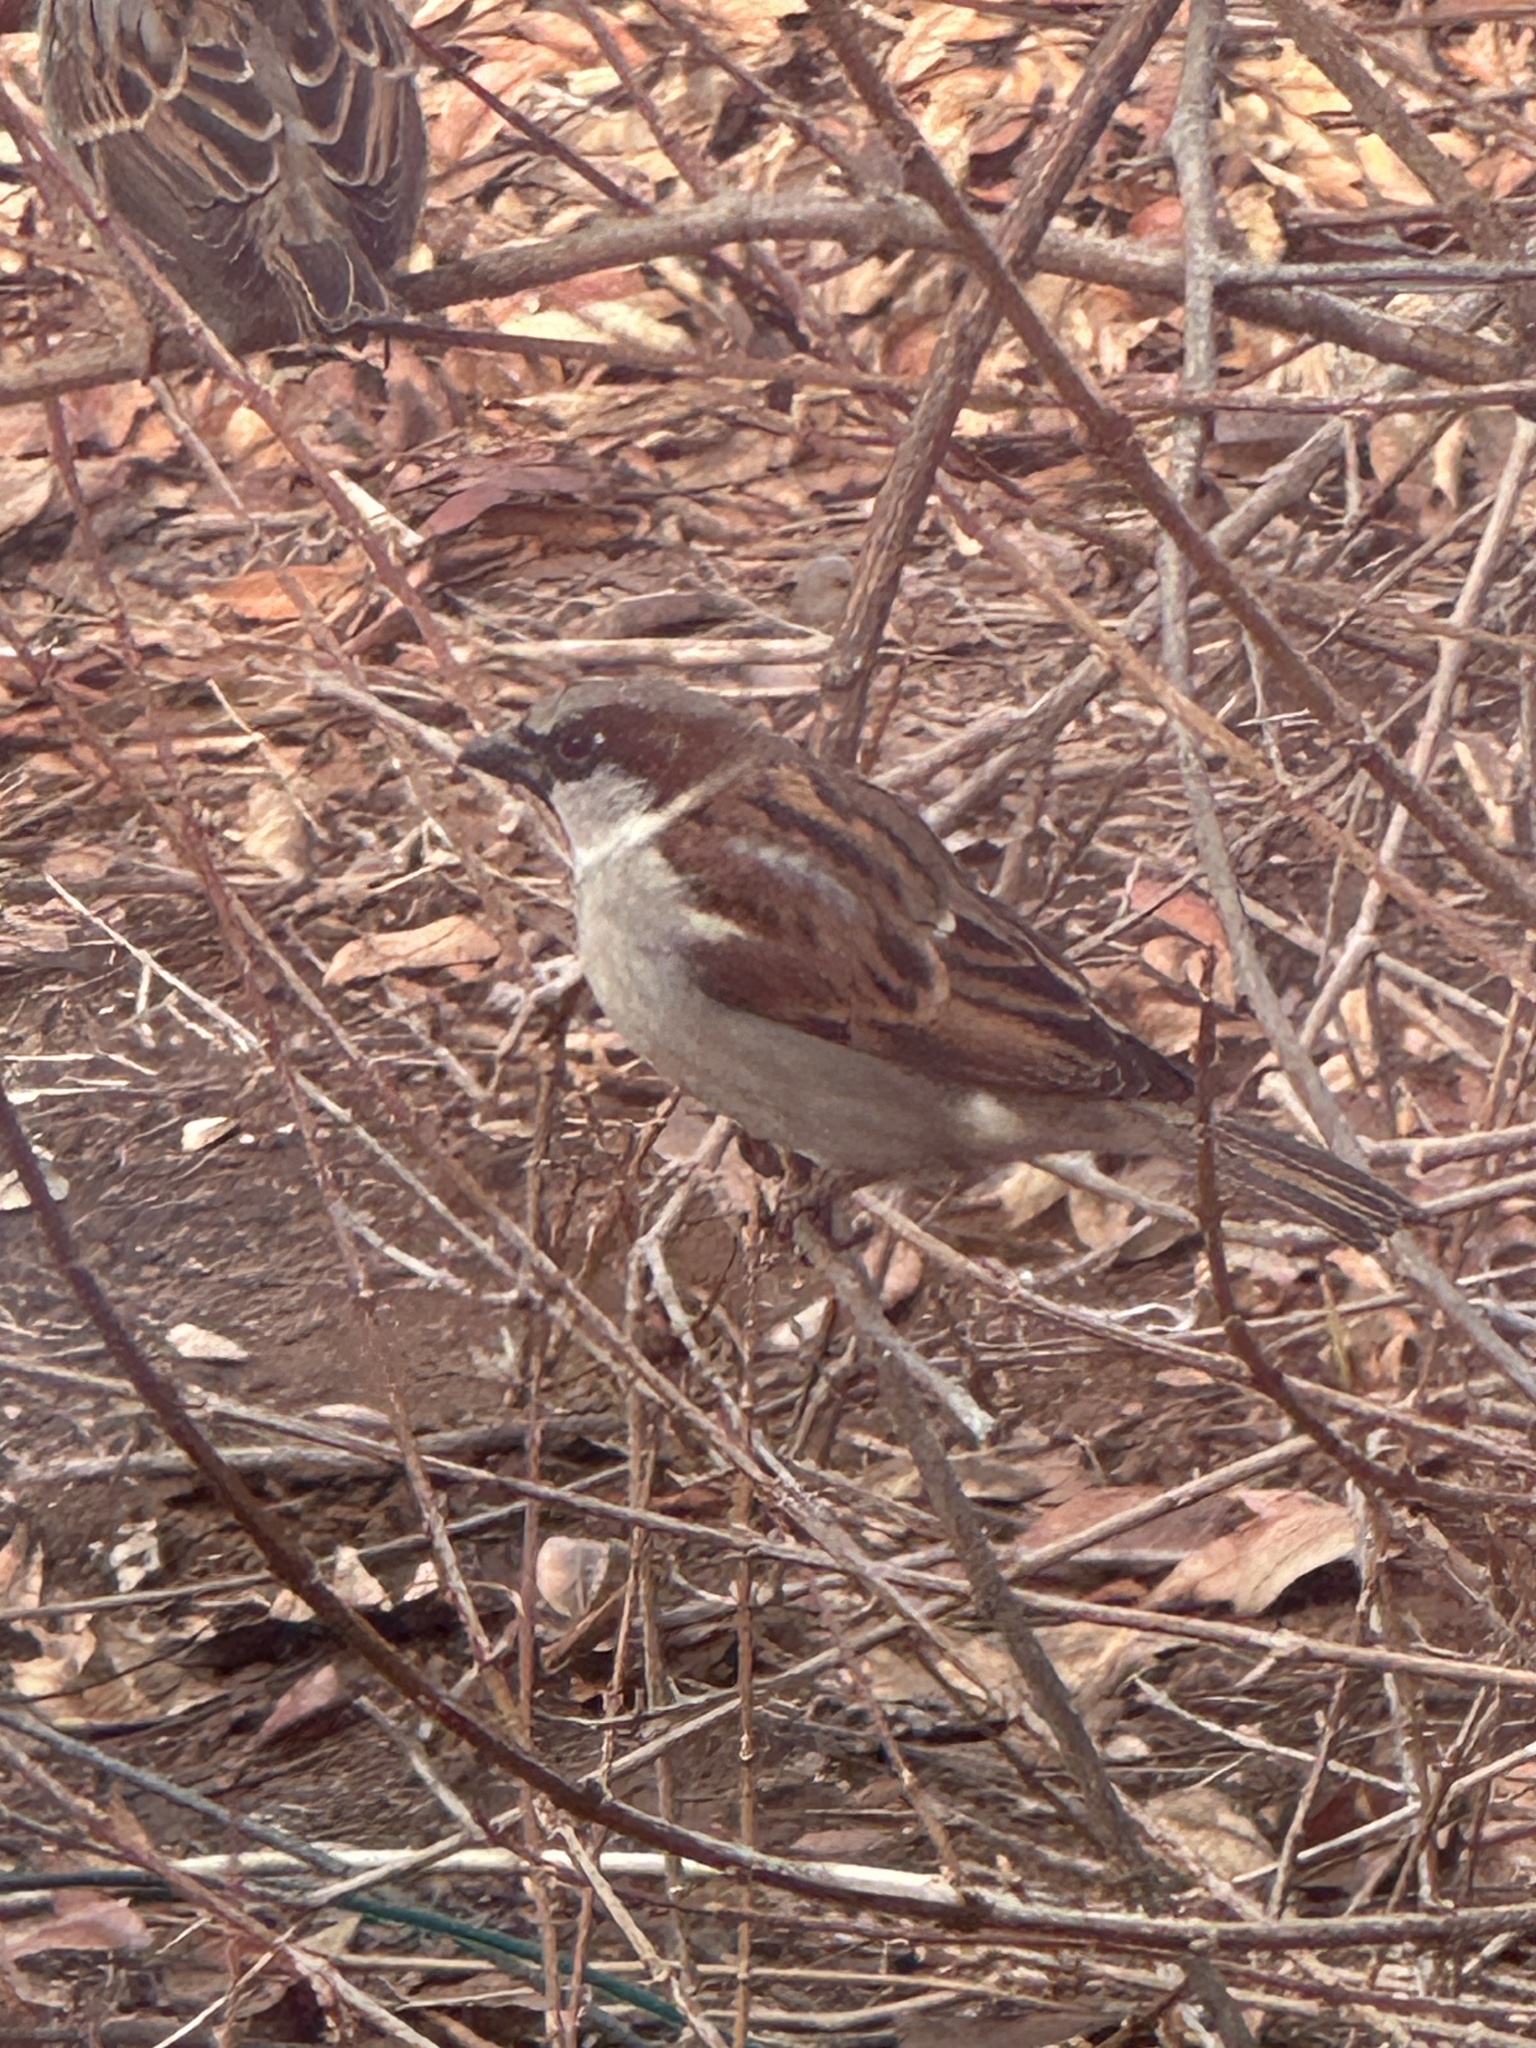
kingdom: Animalia
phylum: Chordata
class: Aves
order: Passeriformes
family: Passeridae
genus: Passer
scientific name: Passer domesticus
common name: House sparrow
